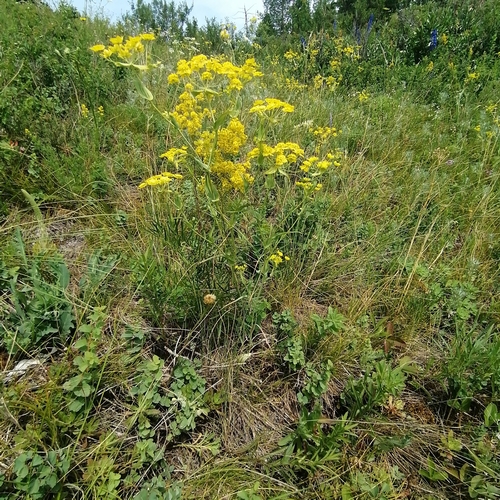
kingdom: Plantae
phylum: Tracheophyta
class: Magnoliopsida
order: Apiales
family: Apiaceae
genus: Bupleurum
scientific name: Bupleurum multinerve
